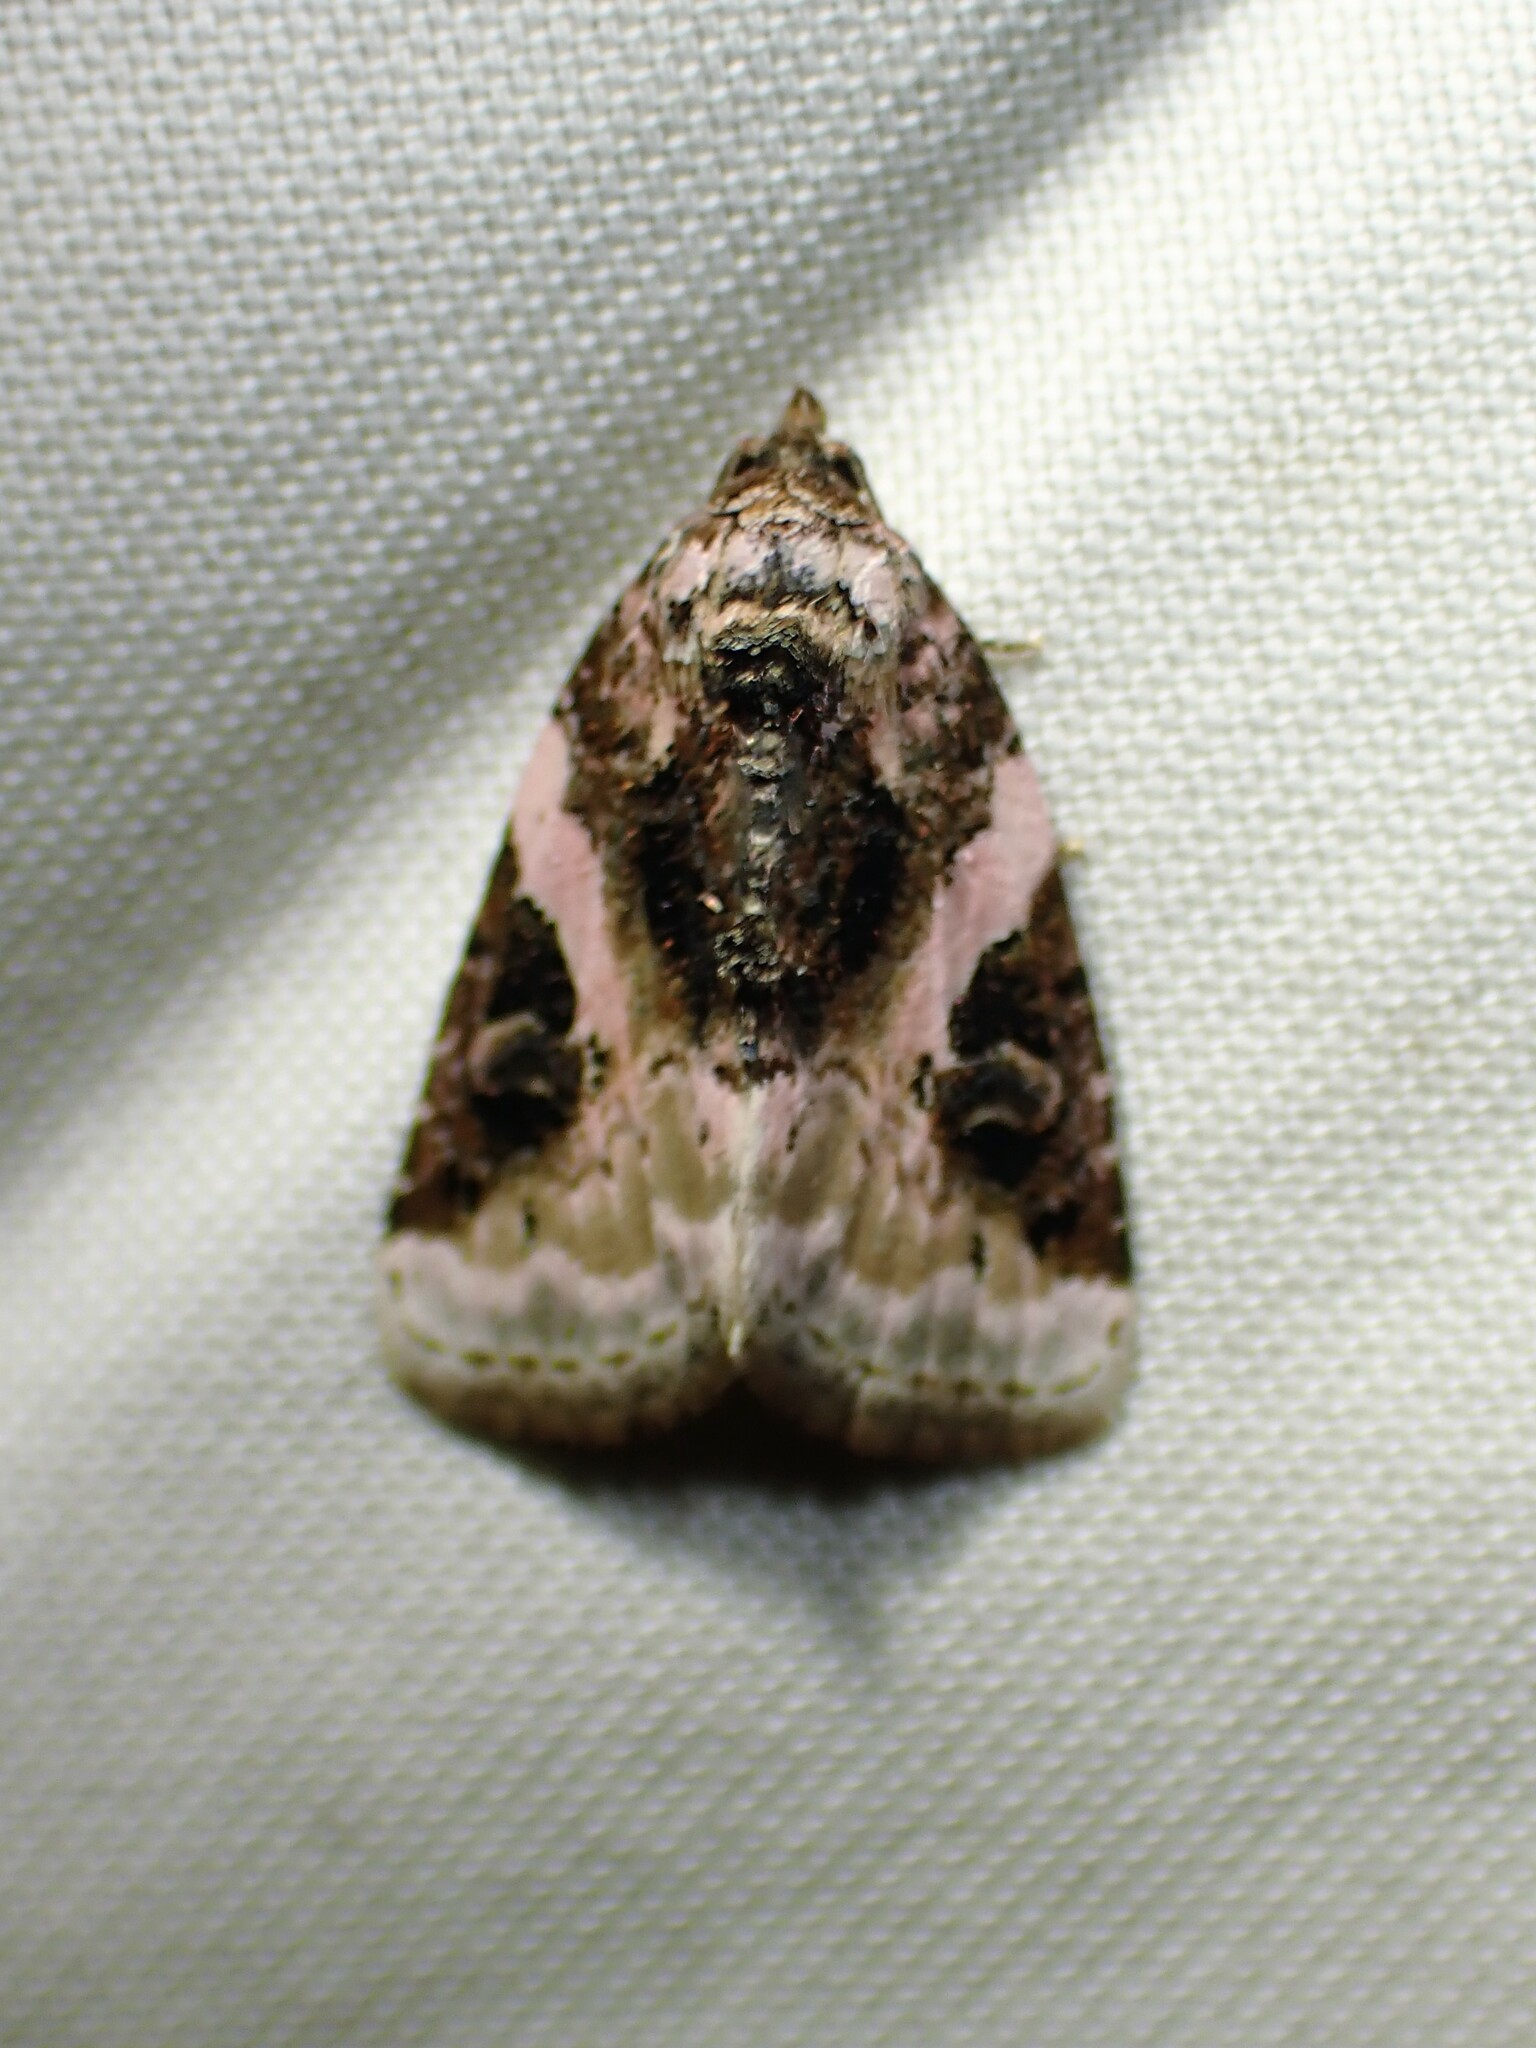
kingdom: Animalia
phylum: Arthropoda
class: Insecta
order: Lepidoptera
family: Noctuidae
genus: Pseudeustrotia
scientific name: Pseudeustrotia carneola
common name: Pink-barred lithacodia moth
